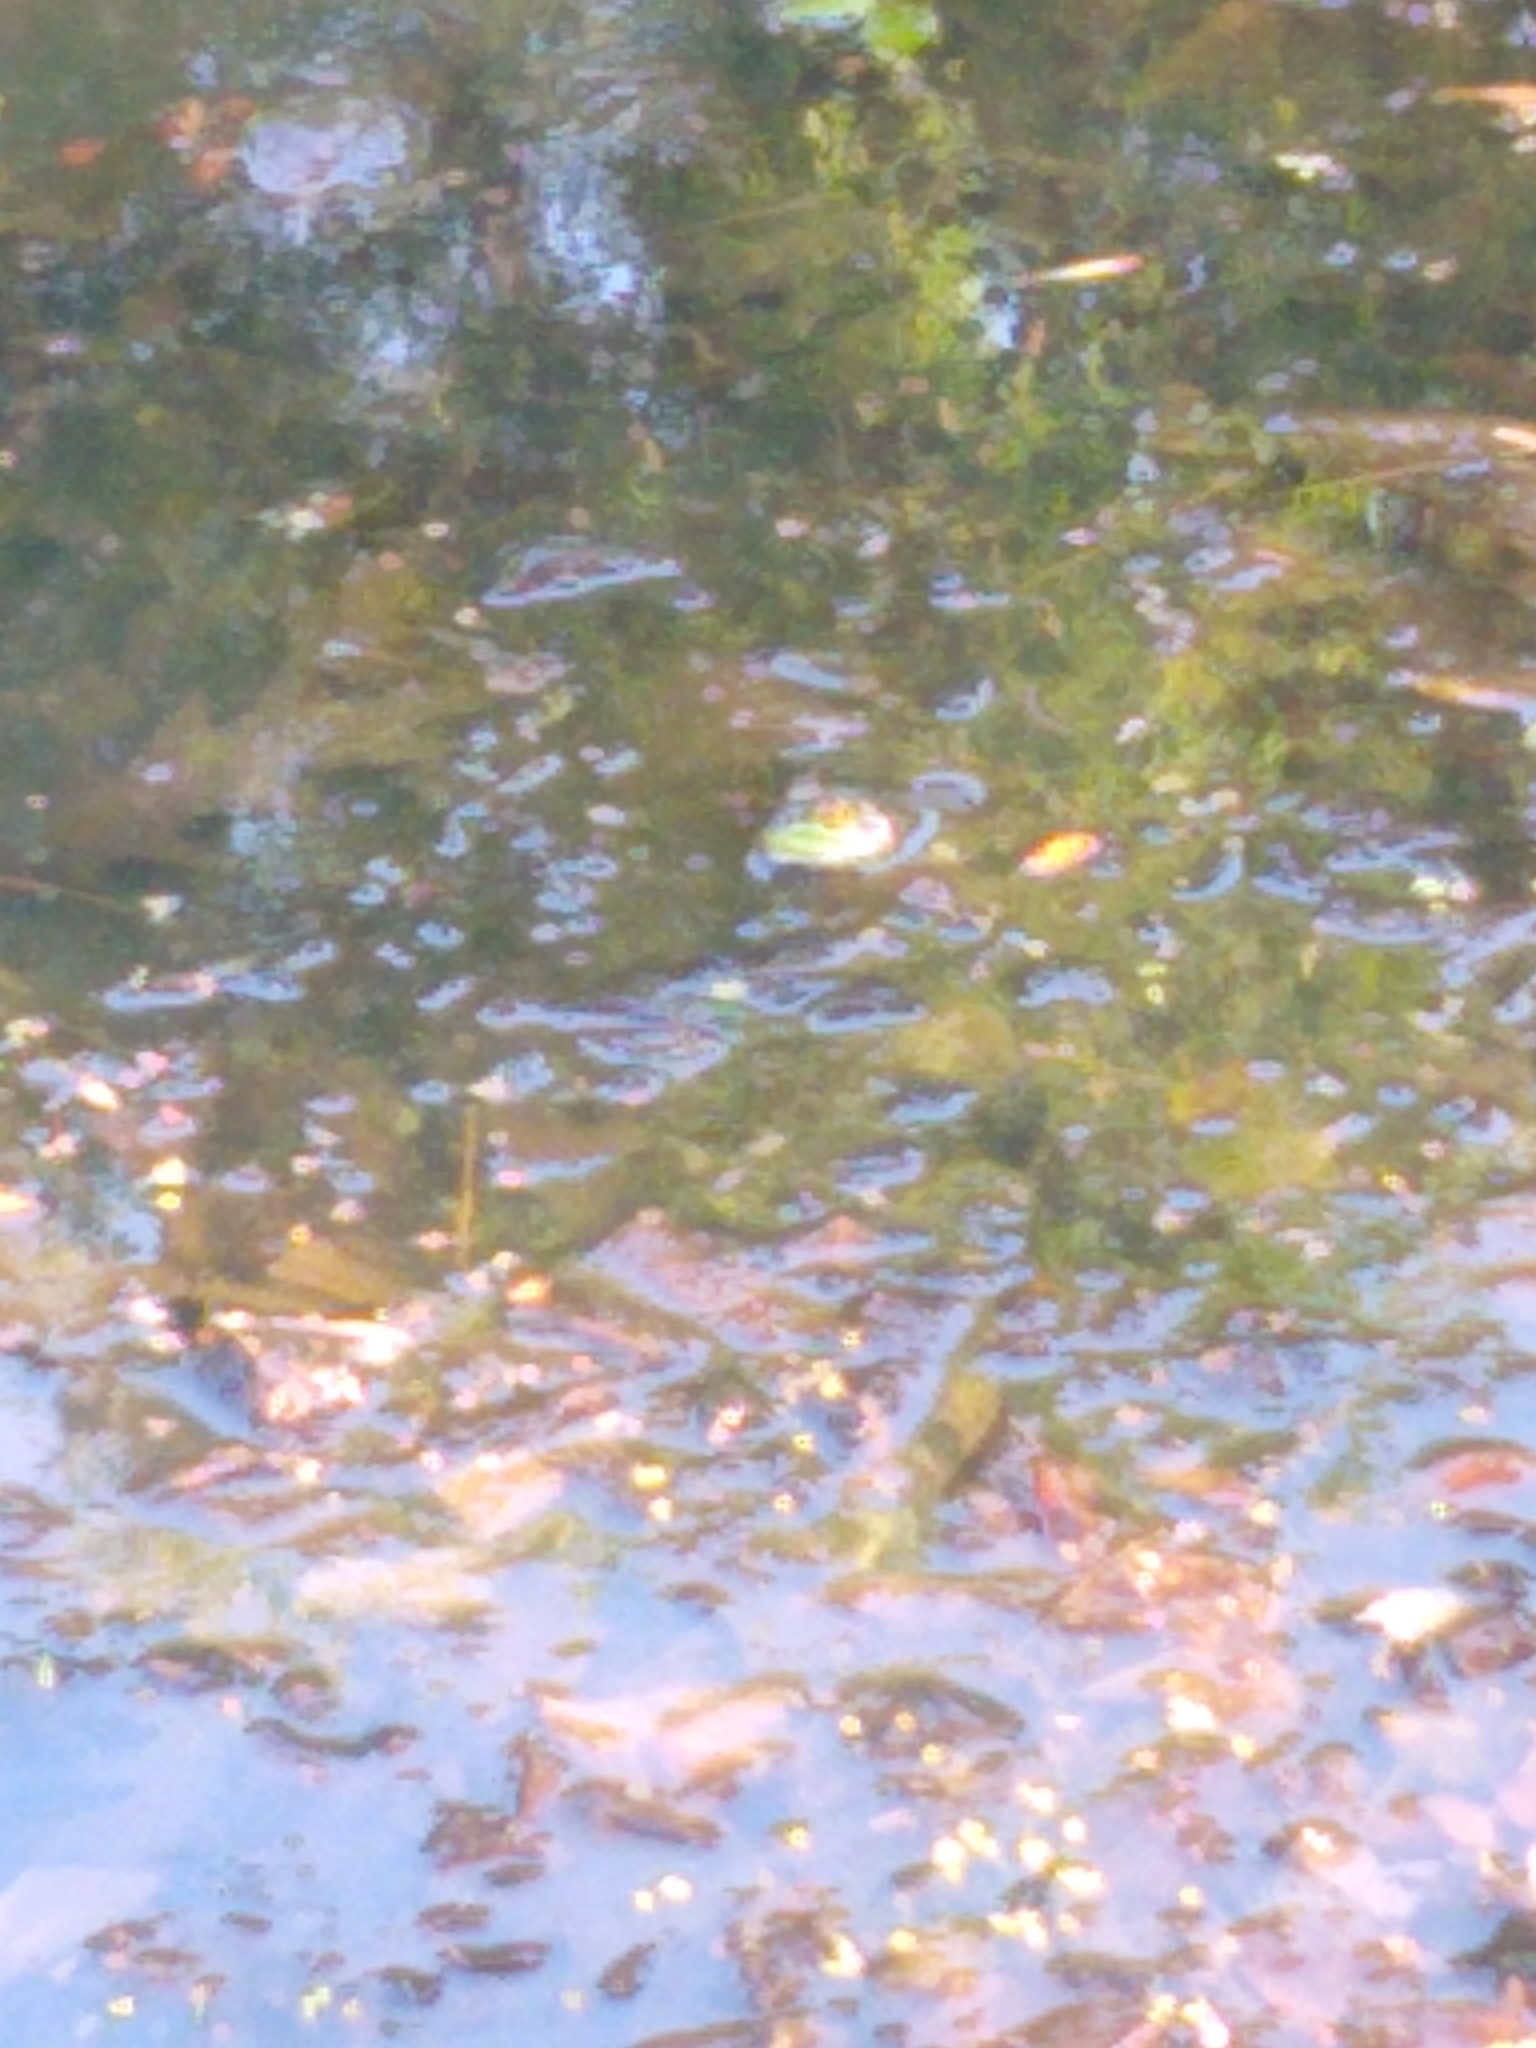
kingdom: Animalia
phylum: Chordata
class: Amphibia
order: Anura
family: Ranidae
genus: Lithobates
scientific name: Lithobates catesbeianus
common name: American bullfrog
